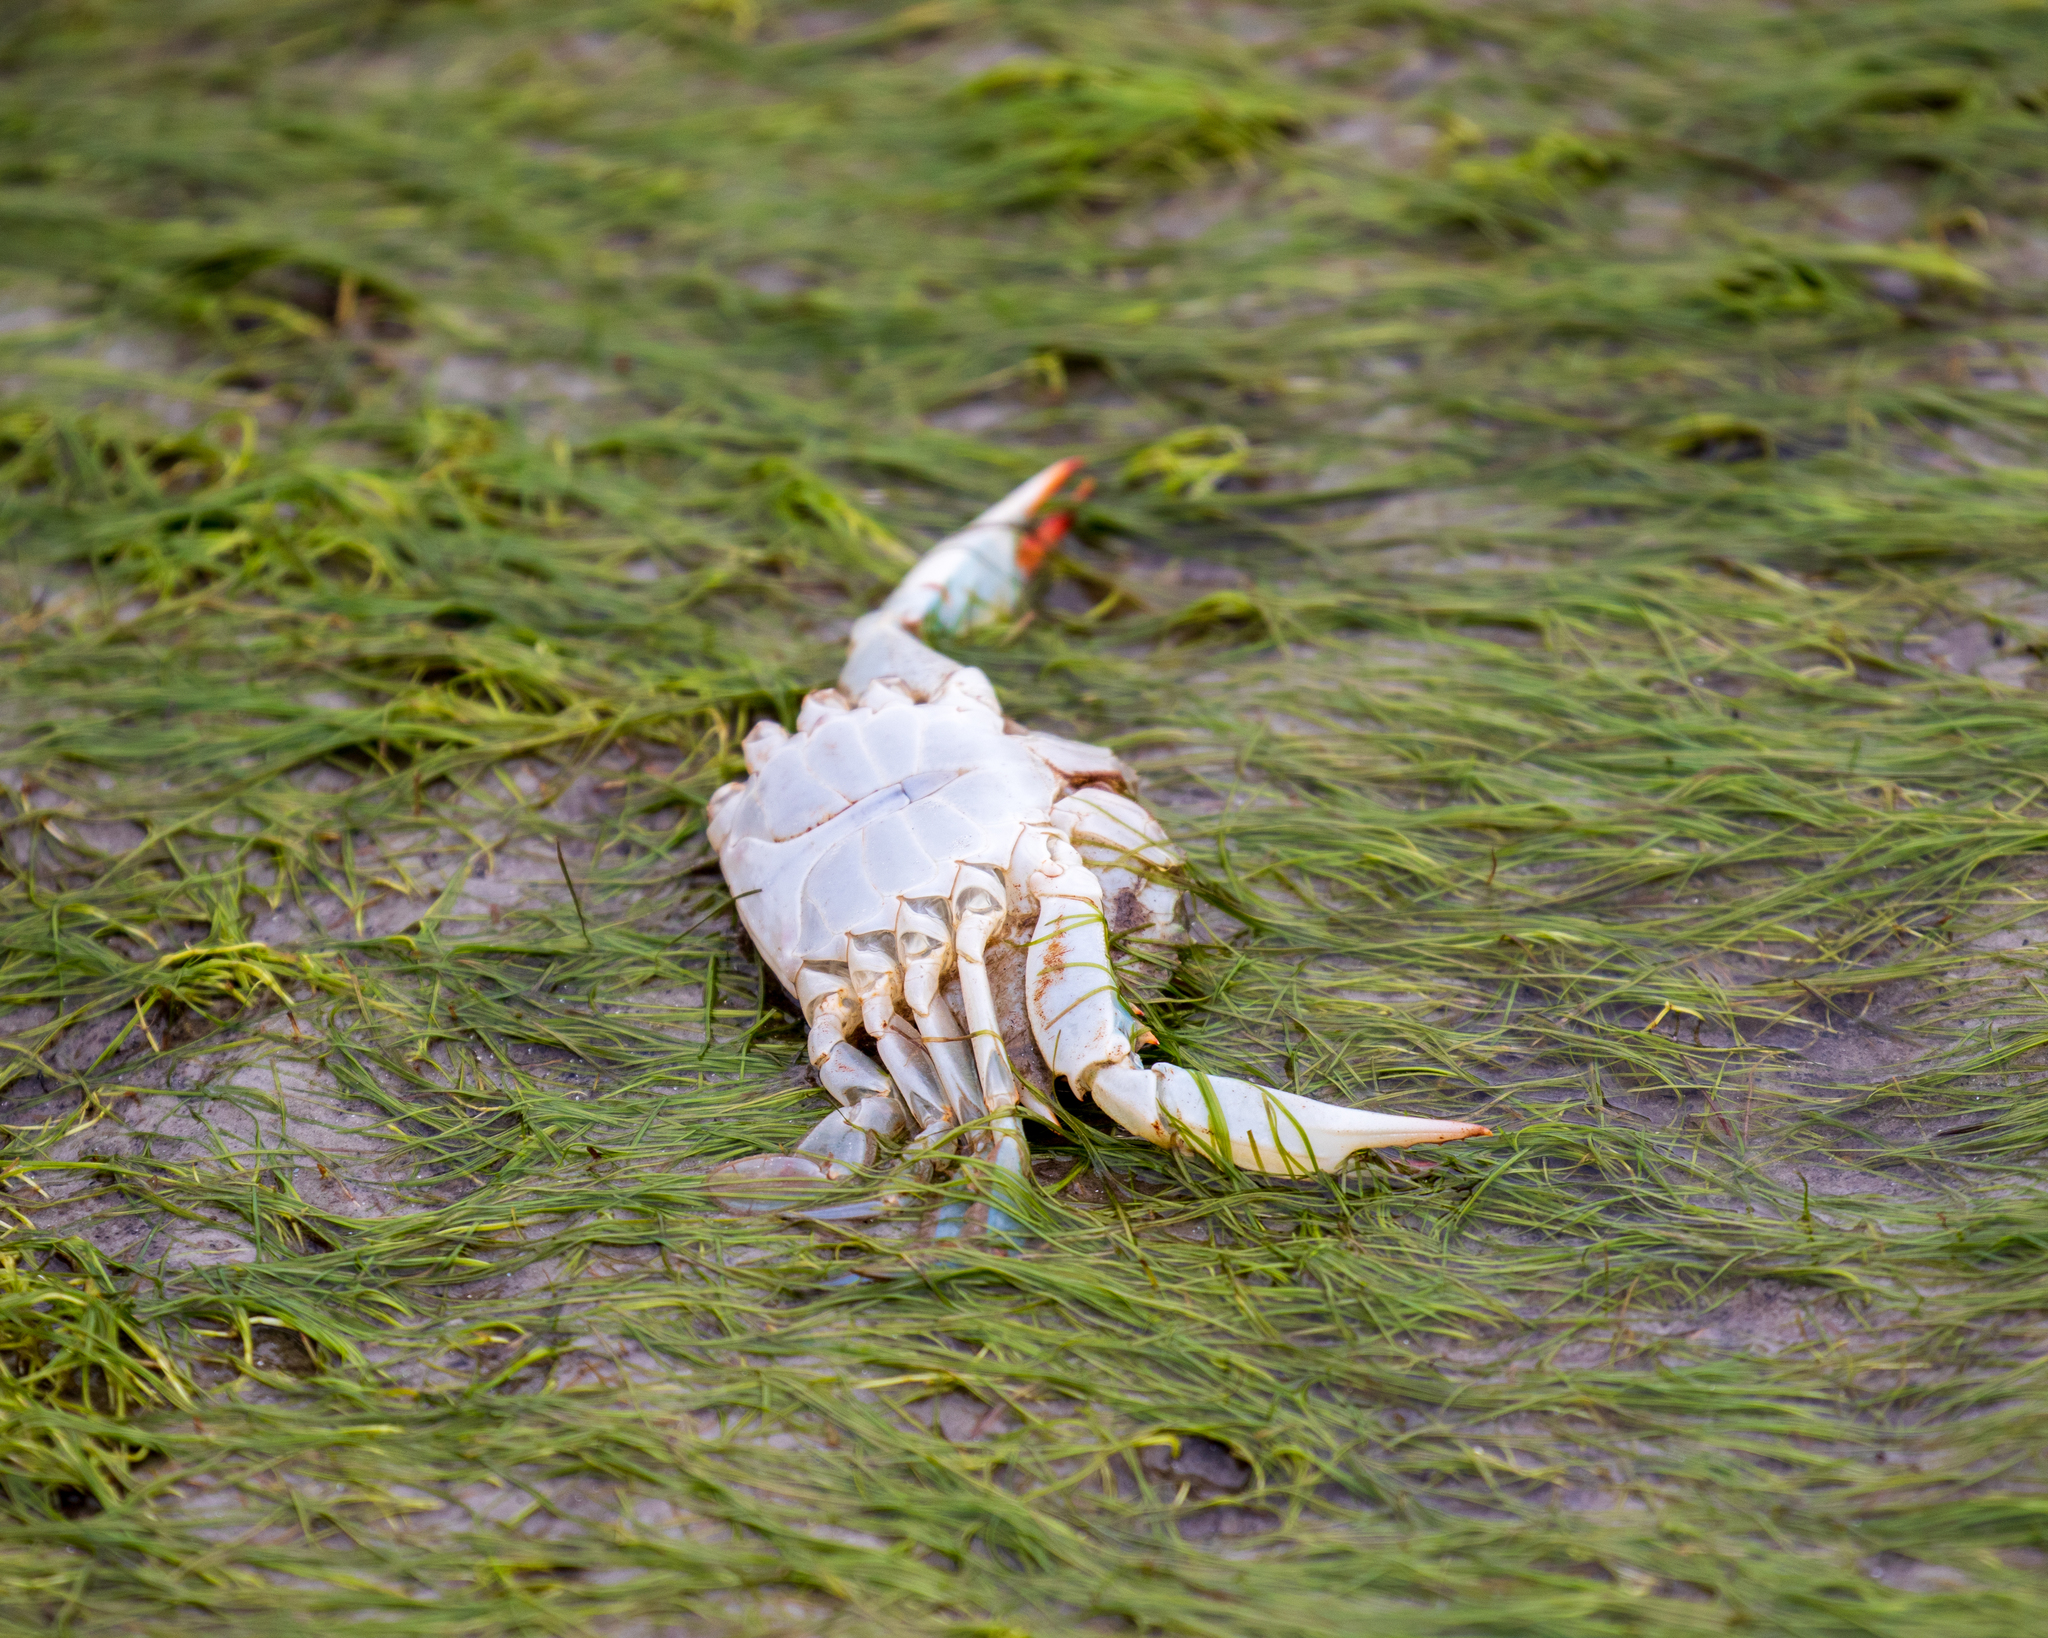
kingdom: Animalia
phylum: Arthropoda
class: Malacostraca
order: Decapoda
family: Portunidae
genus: Callinectes
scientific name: Callinectes sapidus
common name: Blue crab
